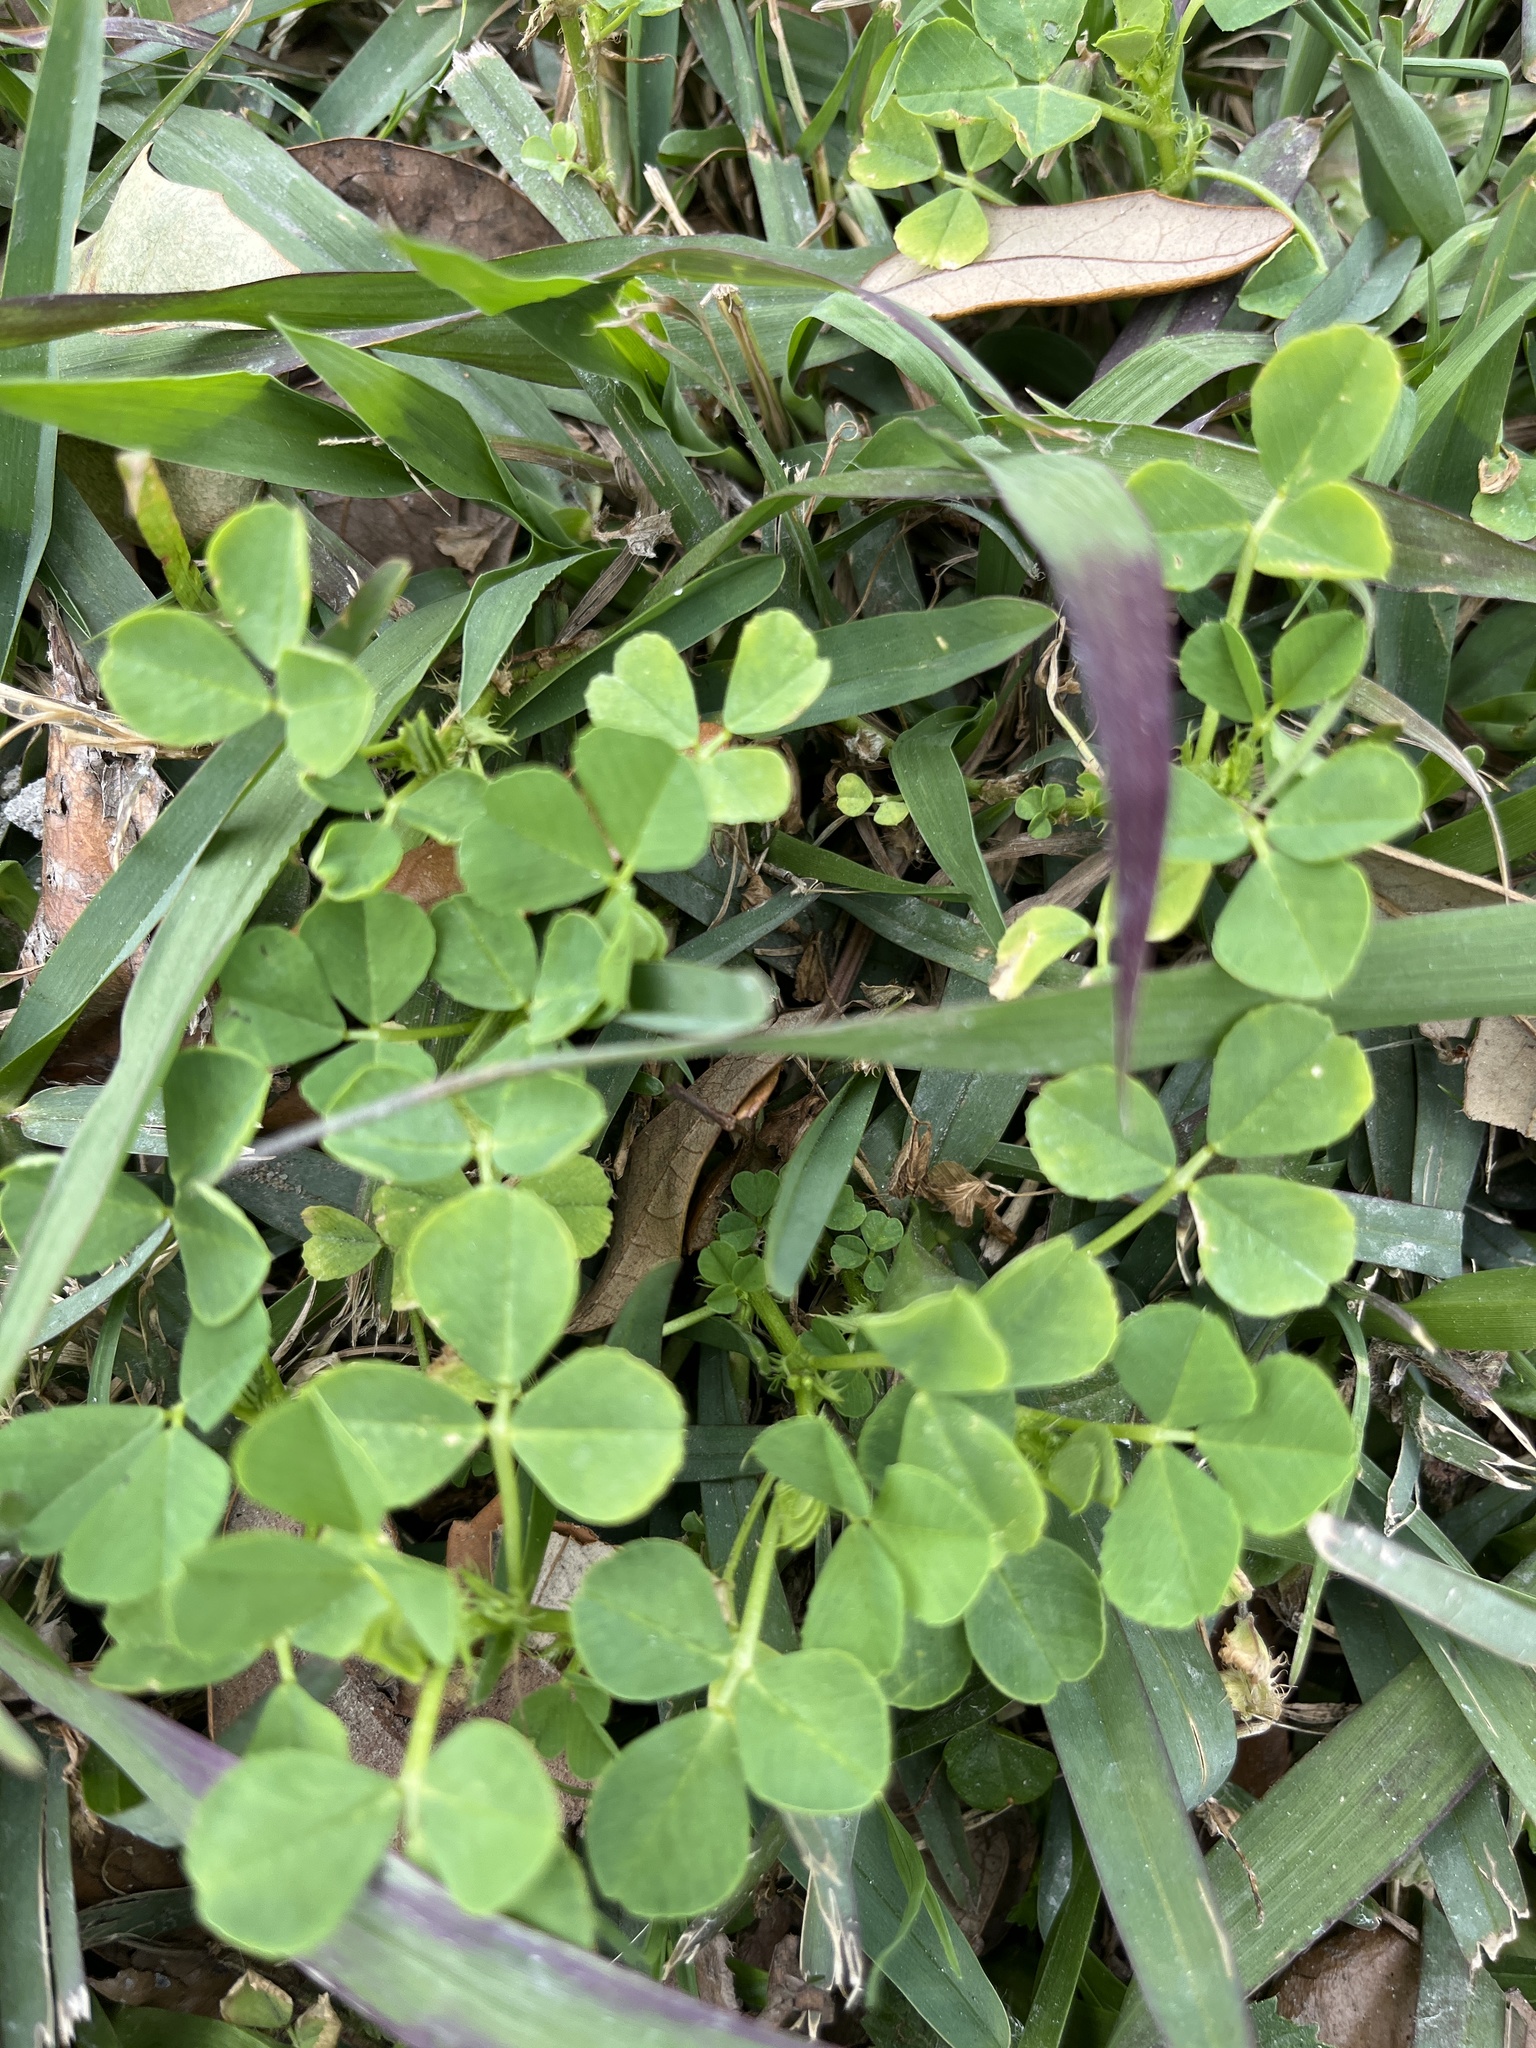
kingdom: Plantae
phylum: Tracheophyta
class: Magnoliopsida
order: Fabales
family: Fabaceae
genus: Medicago
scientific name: Medicago polymorpha
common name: Burclover
